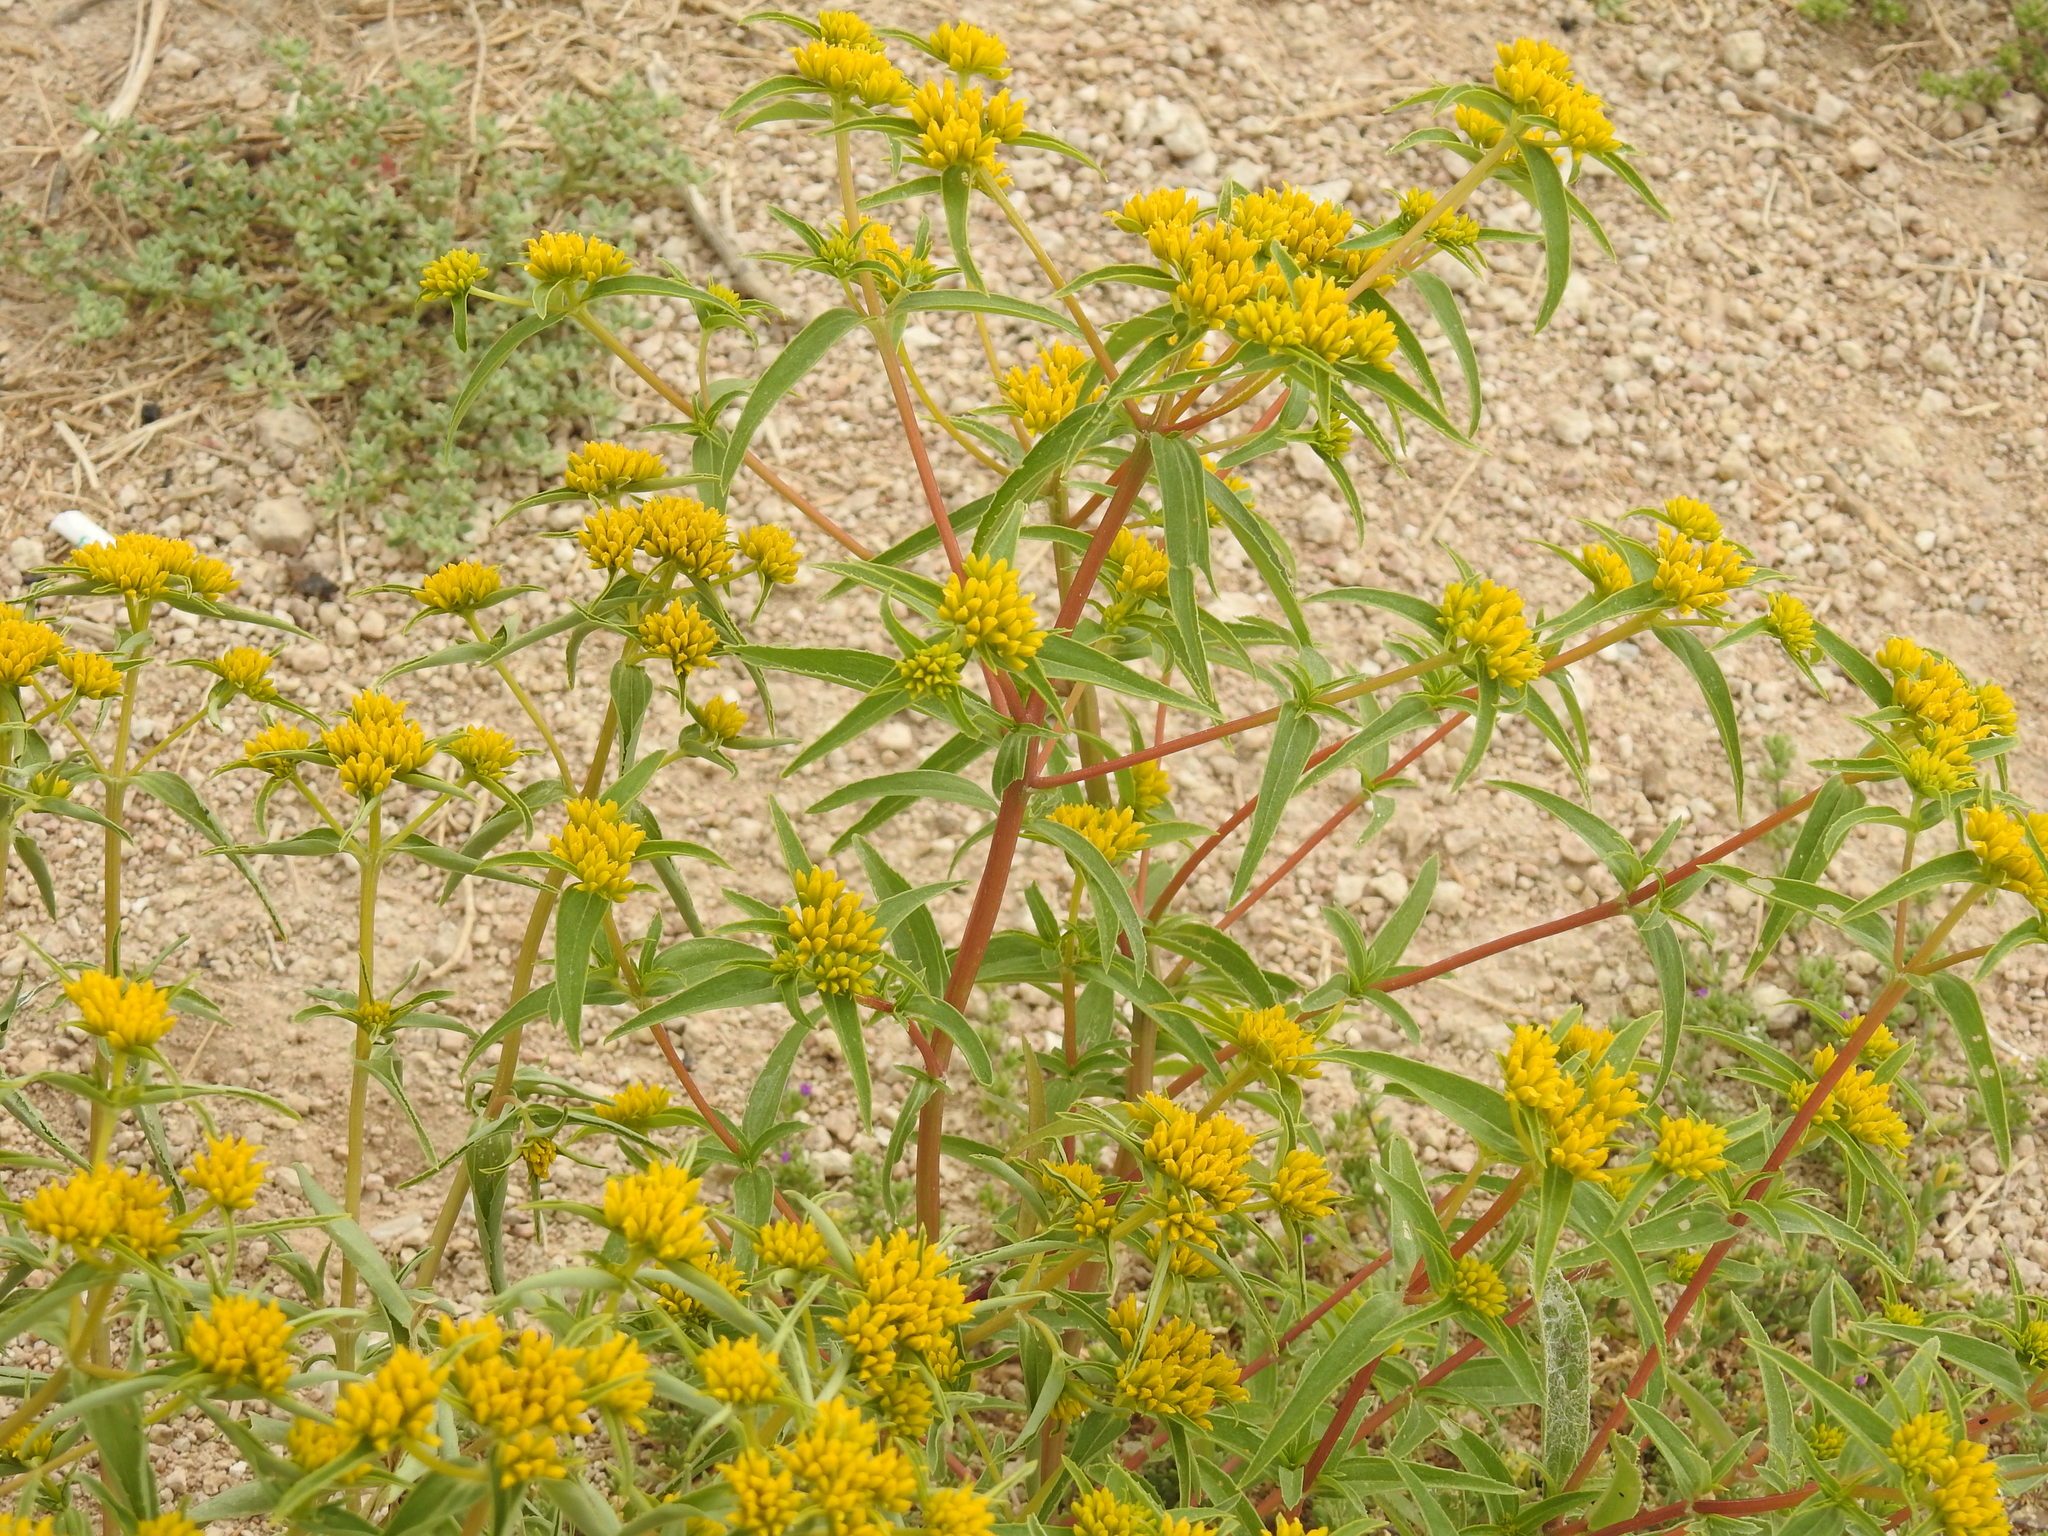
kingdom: Plantae
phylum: Tracheophyta
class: Magnoliopsida
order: Asterales
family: Asteraceae
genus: Flaveria
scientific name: Flaveria campestris
